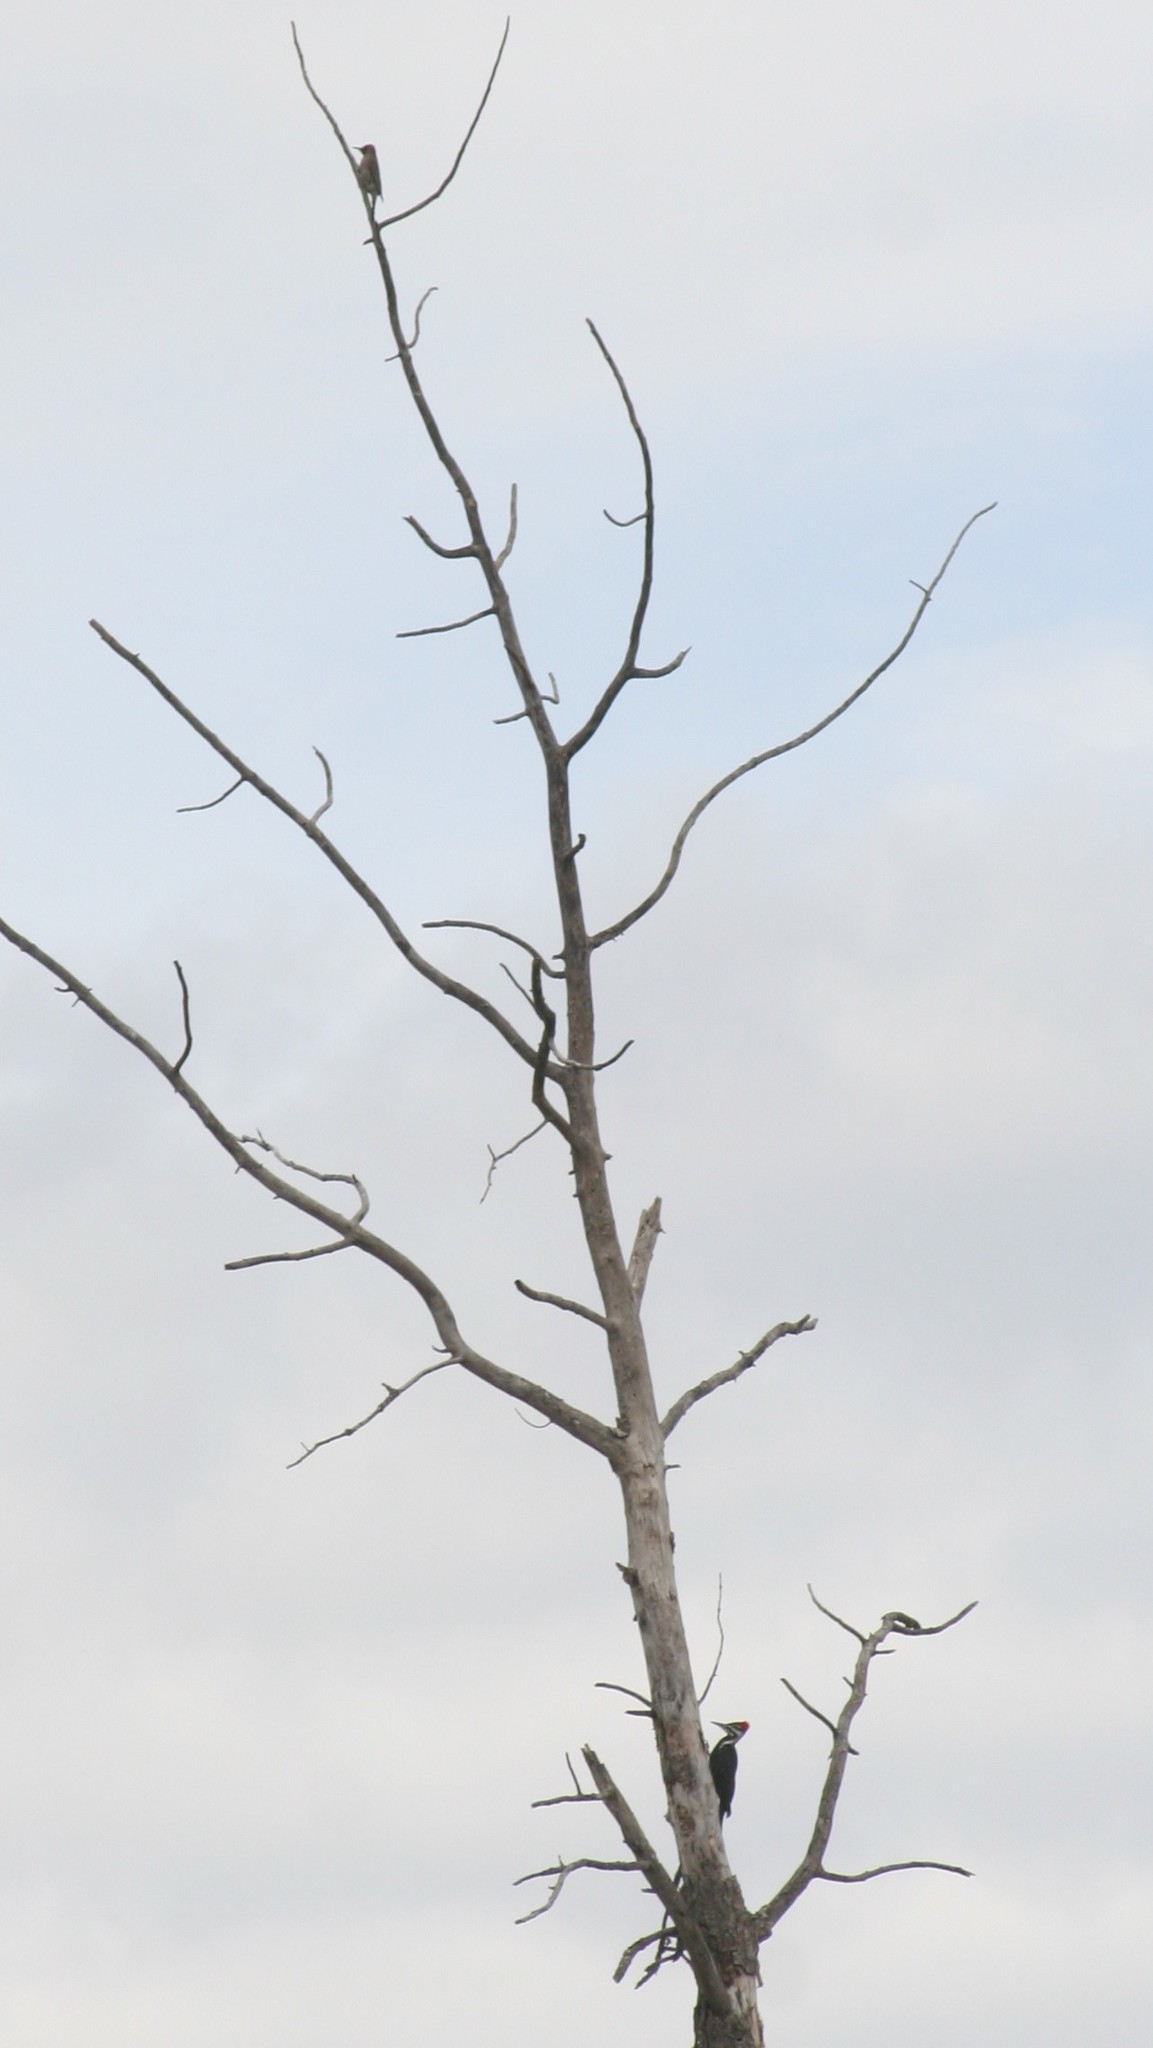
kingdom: Animalia
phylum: Chordata
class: Aves
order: Piciformes
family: Picidae
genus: Dryocopus
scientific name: Dryocopus pileatus
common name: Pileated woodpecker
